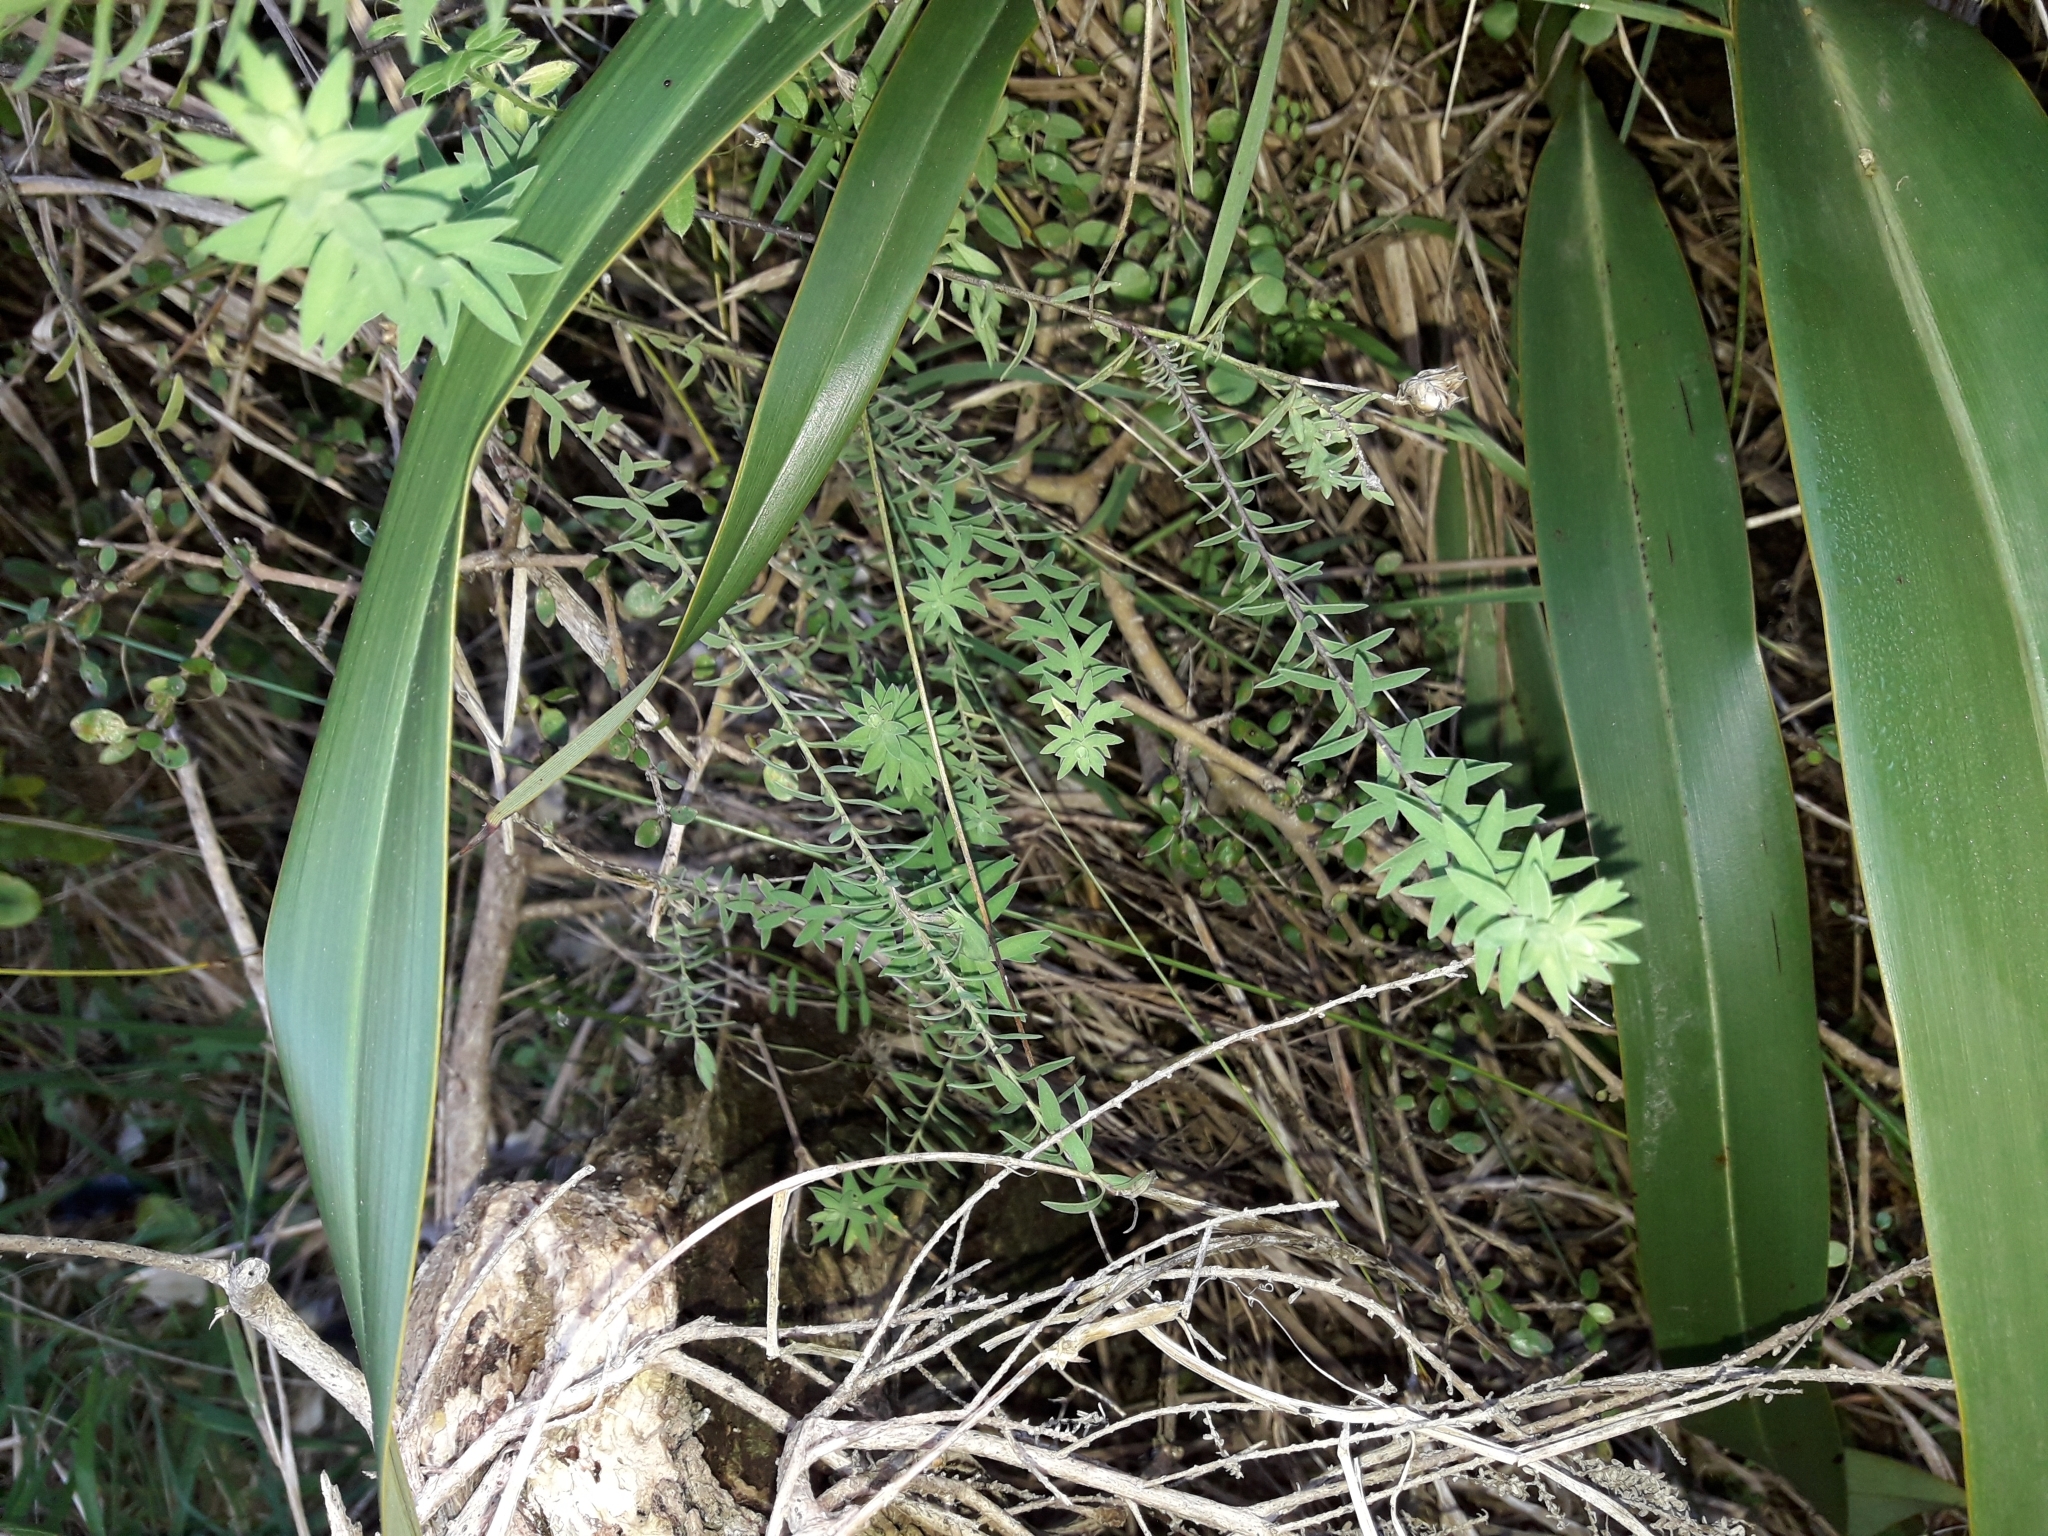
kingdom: Plantae
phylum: Tracheophyta
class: Magnoliopsida
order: Malpighiales
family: Linaceae
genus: Linum
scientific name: Linum monogynum
